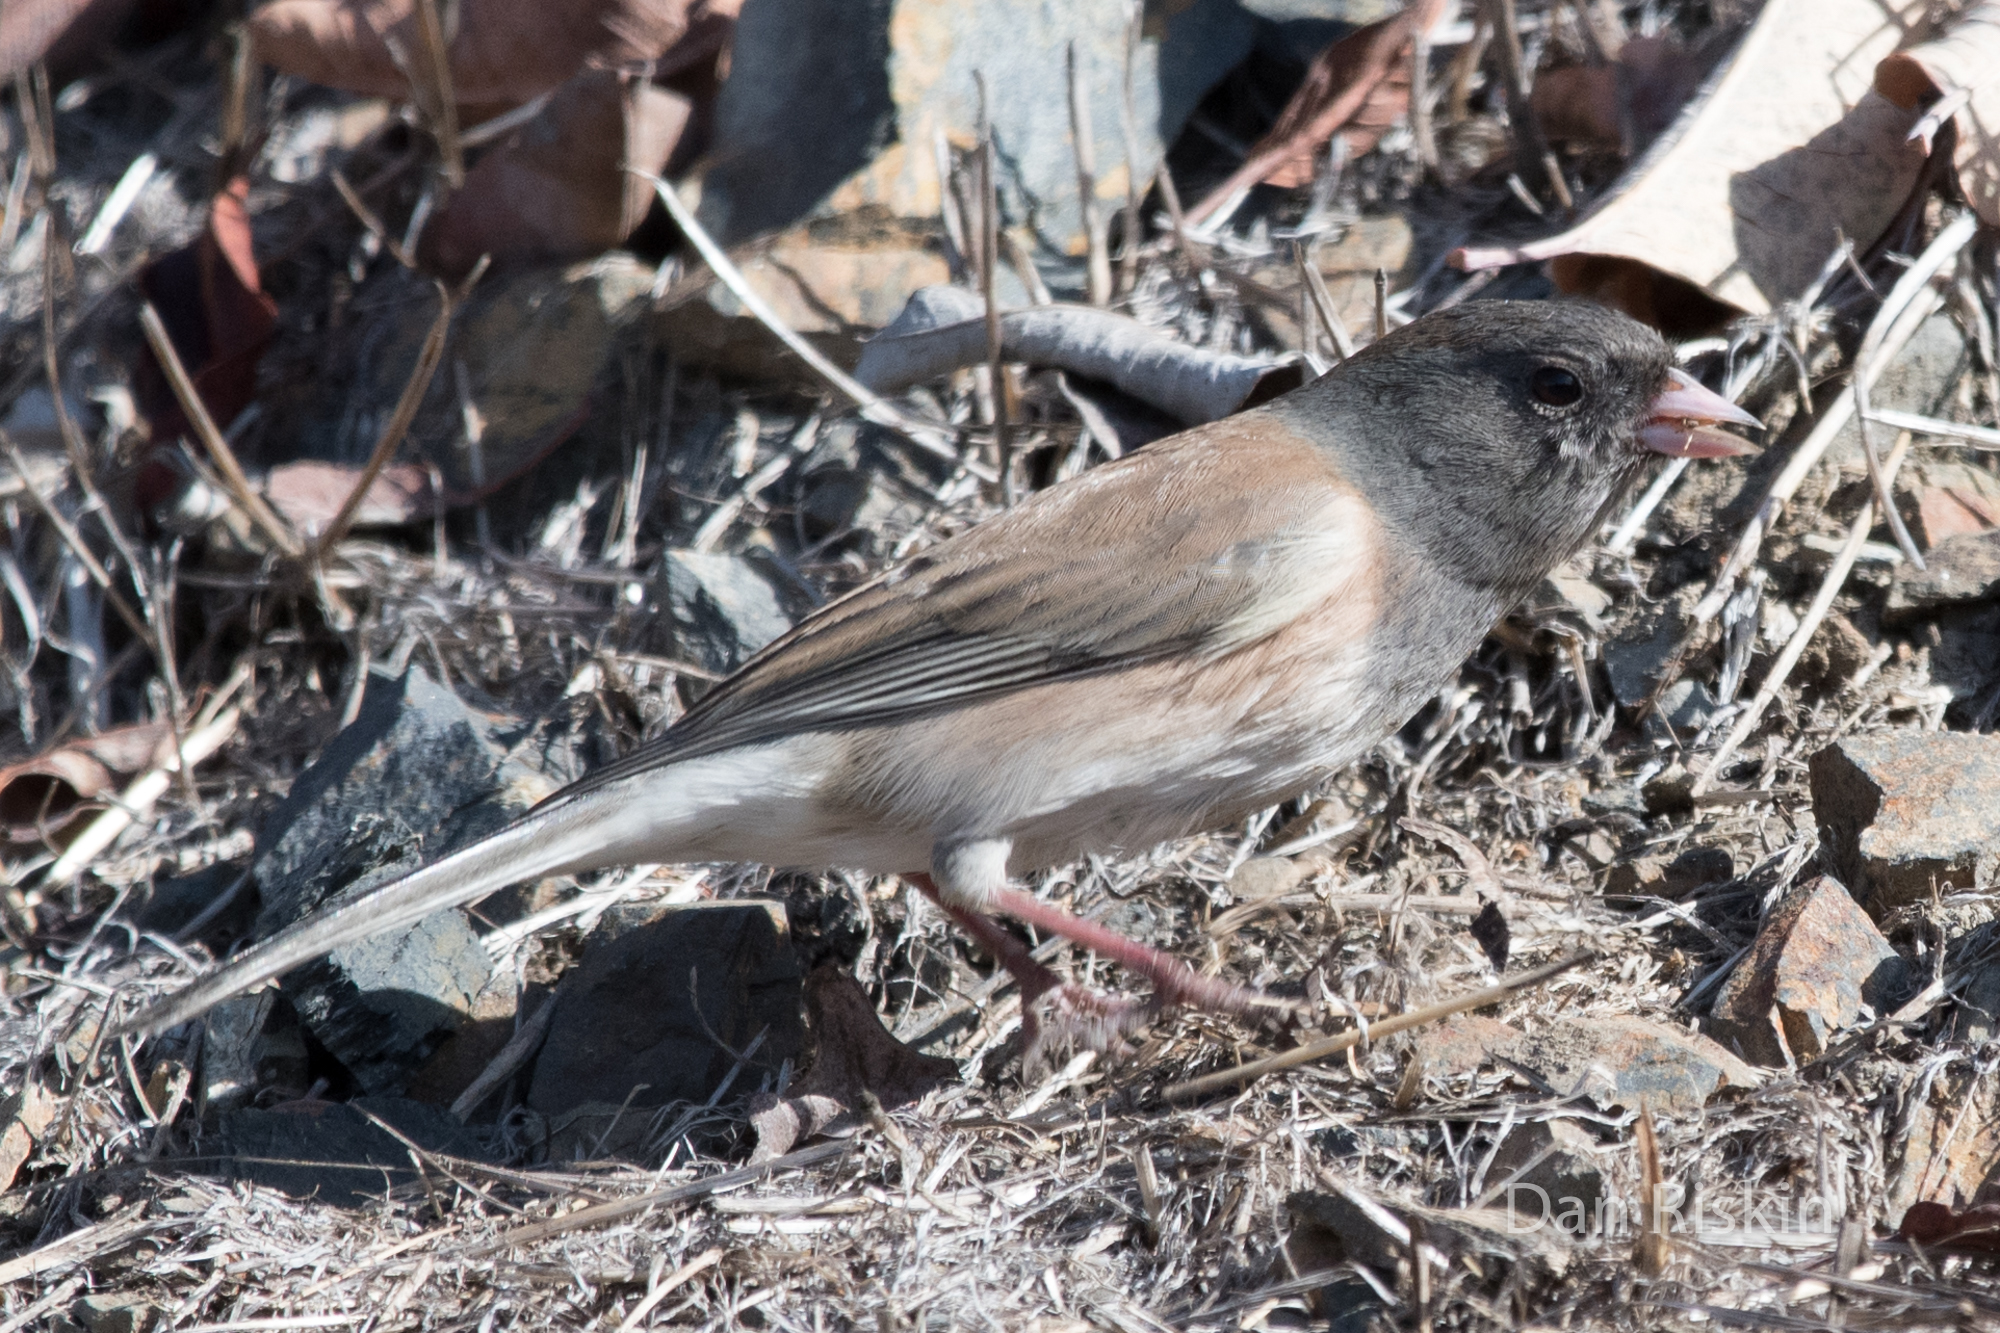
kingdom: Animalia
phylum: Chordata
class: Aves
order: Passeriformes
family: Passerellidae
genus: Junco
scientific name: Junco hyemalis
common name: Dark-eyed junco
